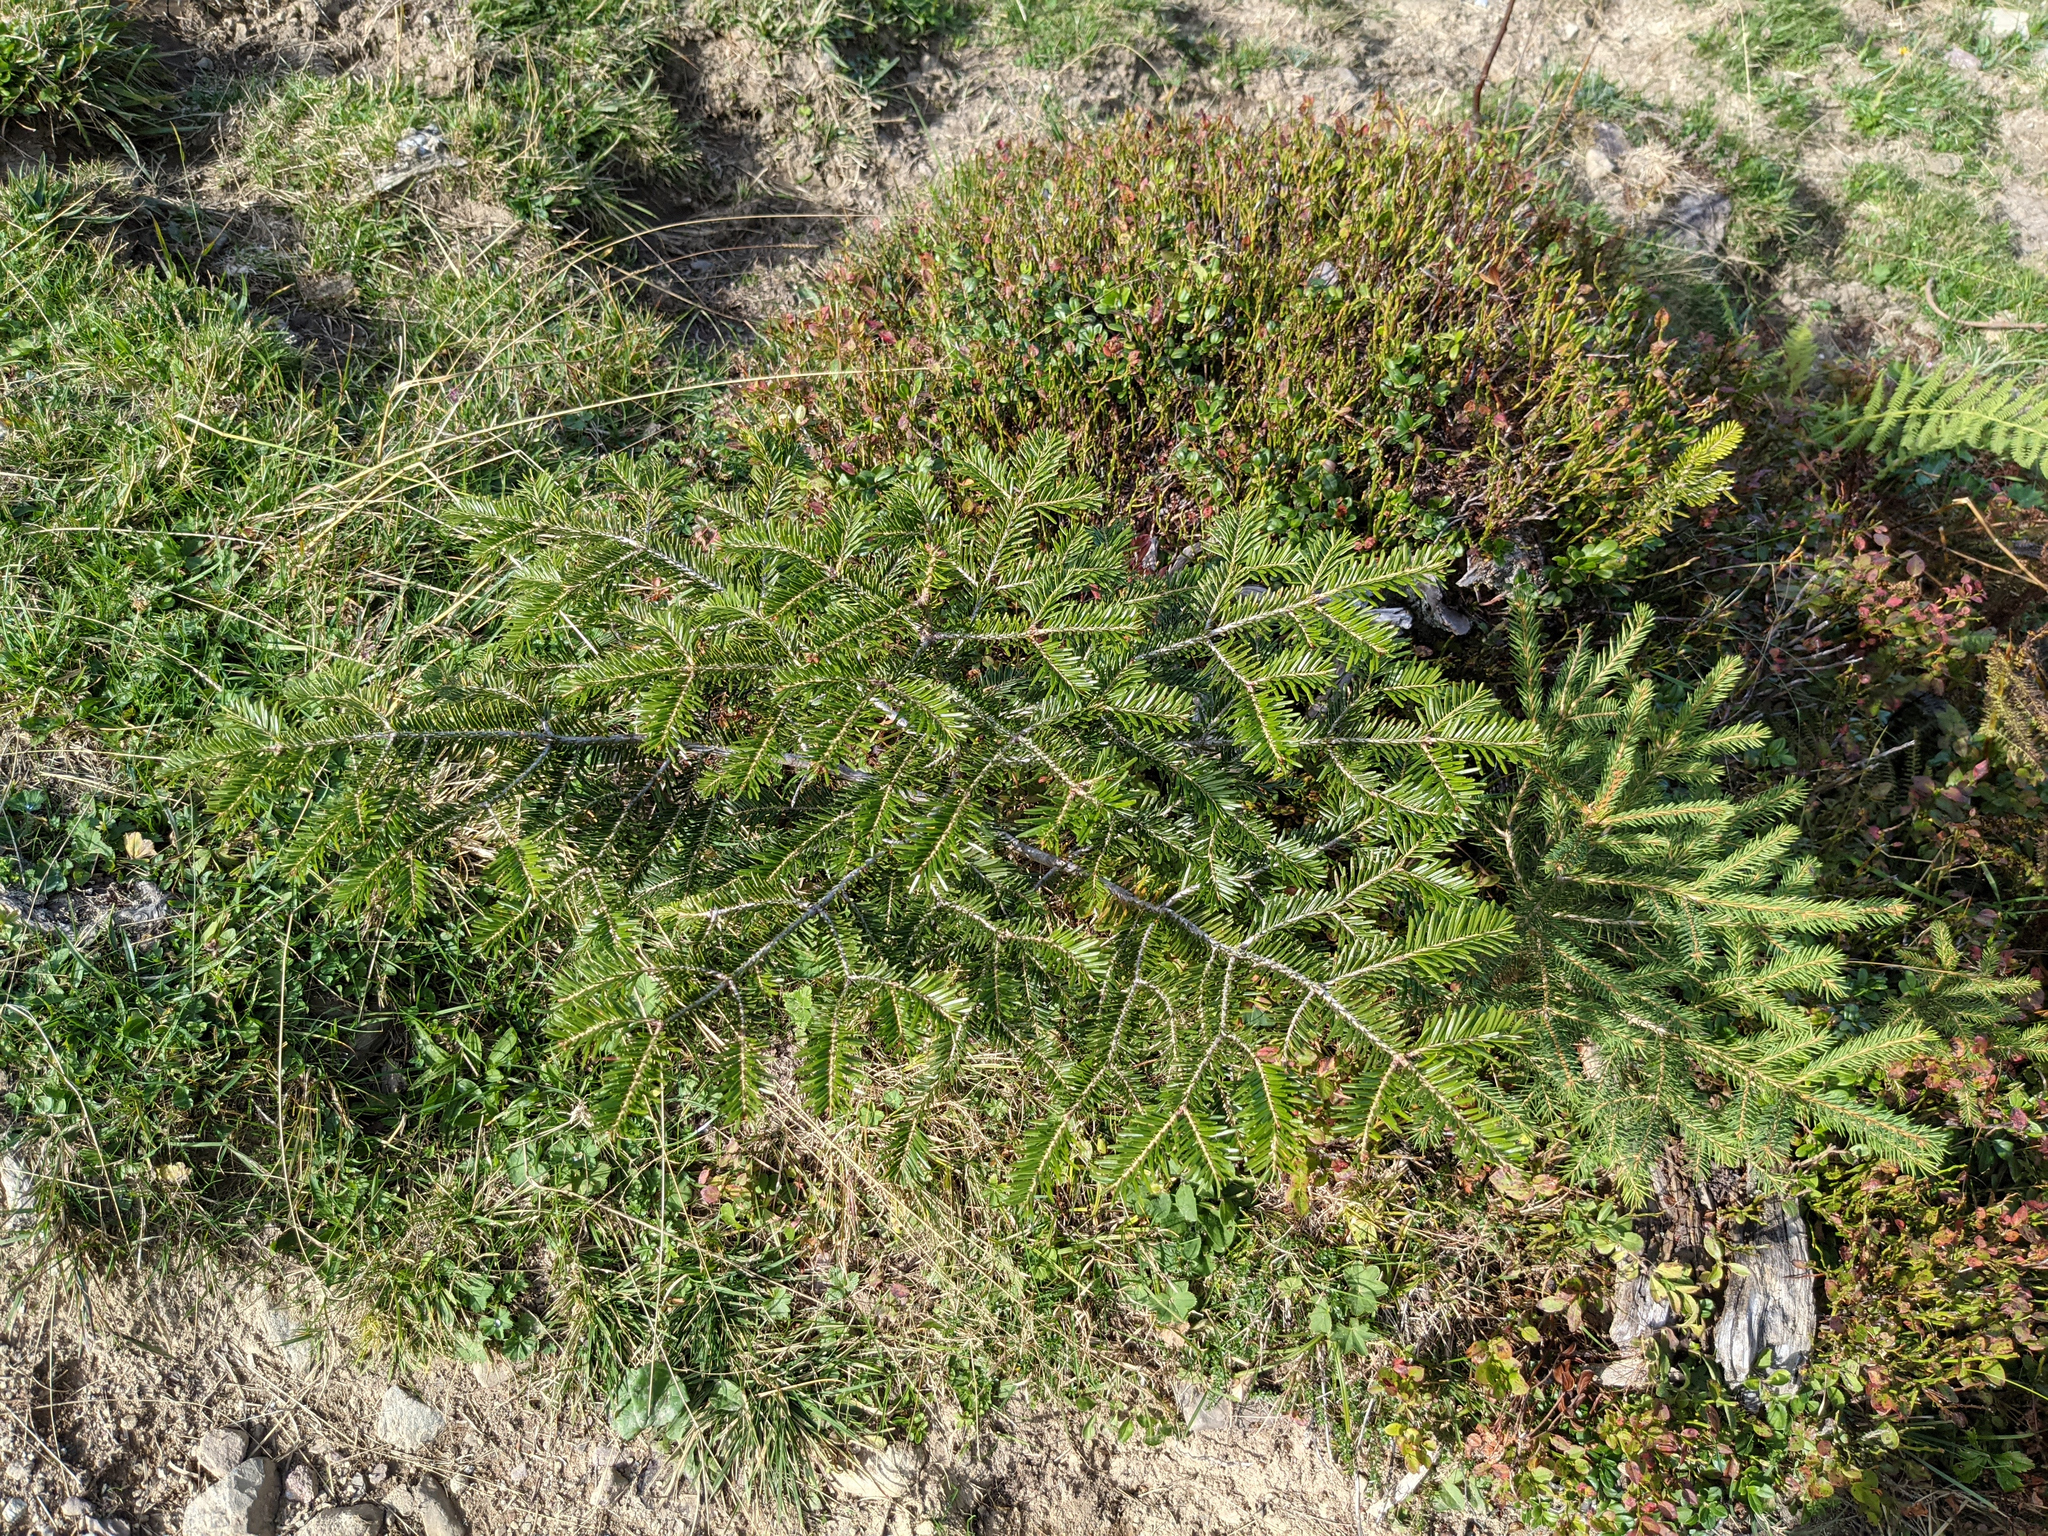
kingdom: Plantae
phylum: Tracheophyta
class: Pinopsida
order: Pinales
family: Pinaceae
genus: Abies
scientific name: Abies alba
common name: Silver fir
